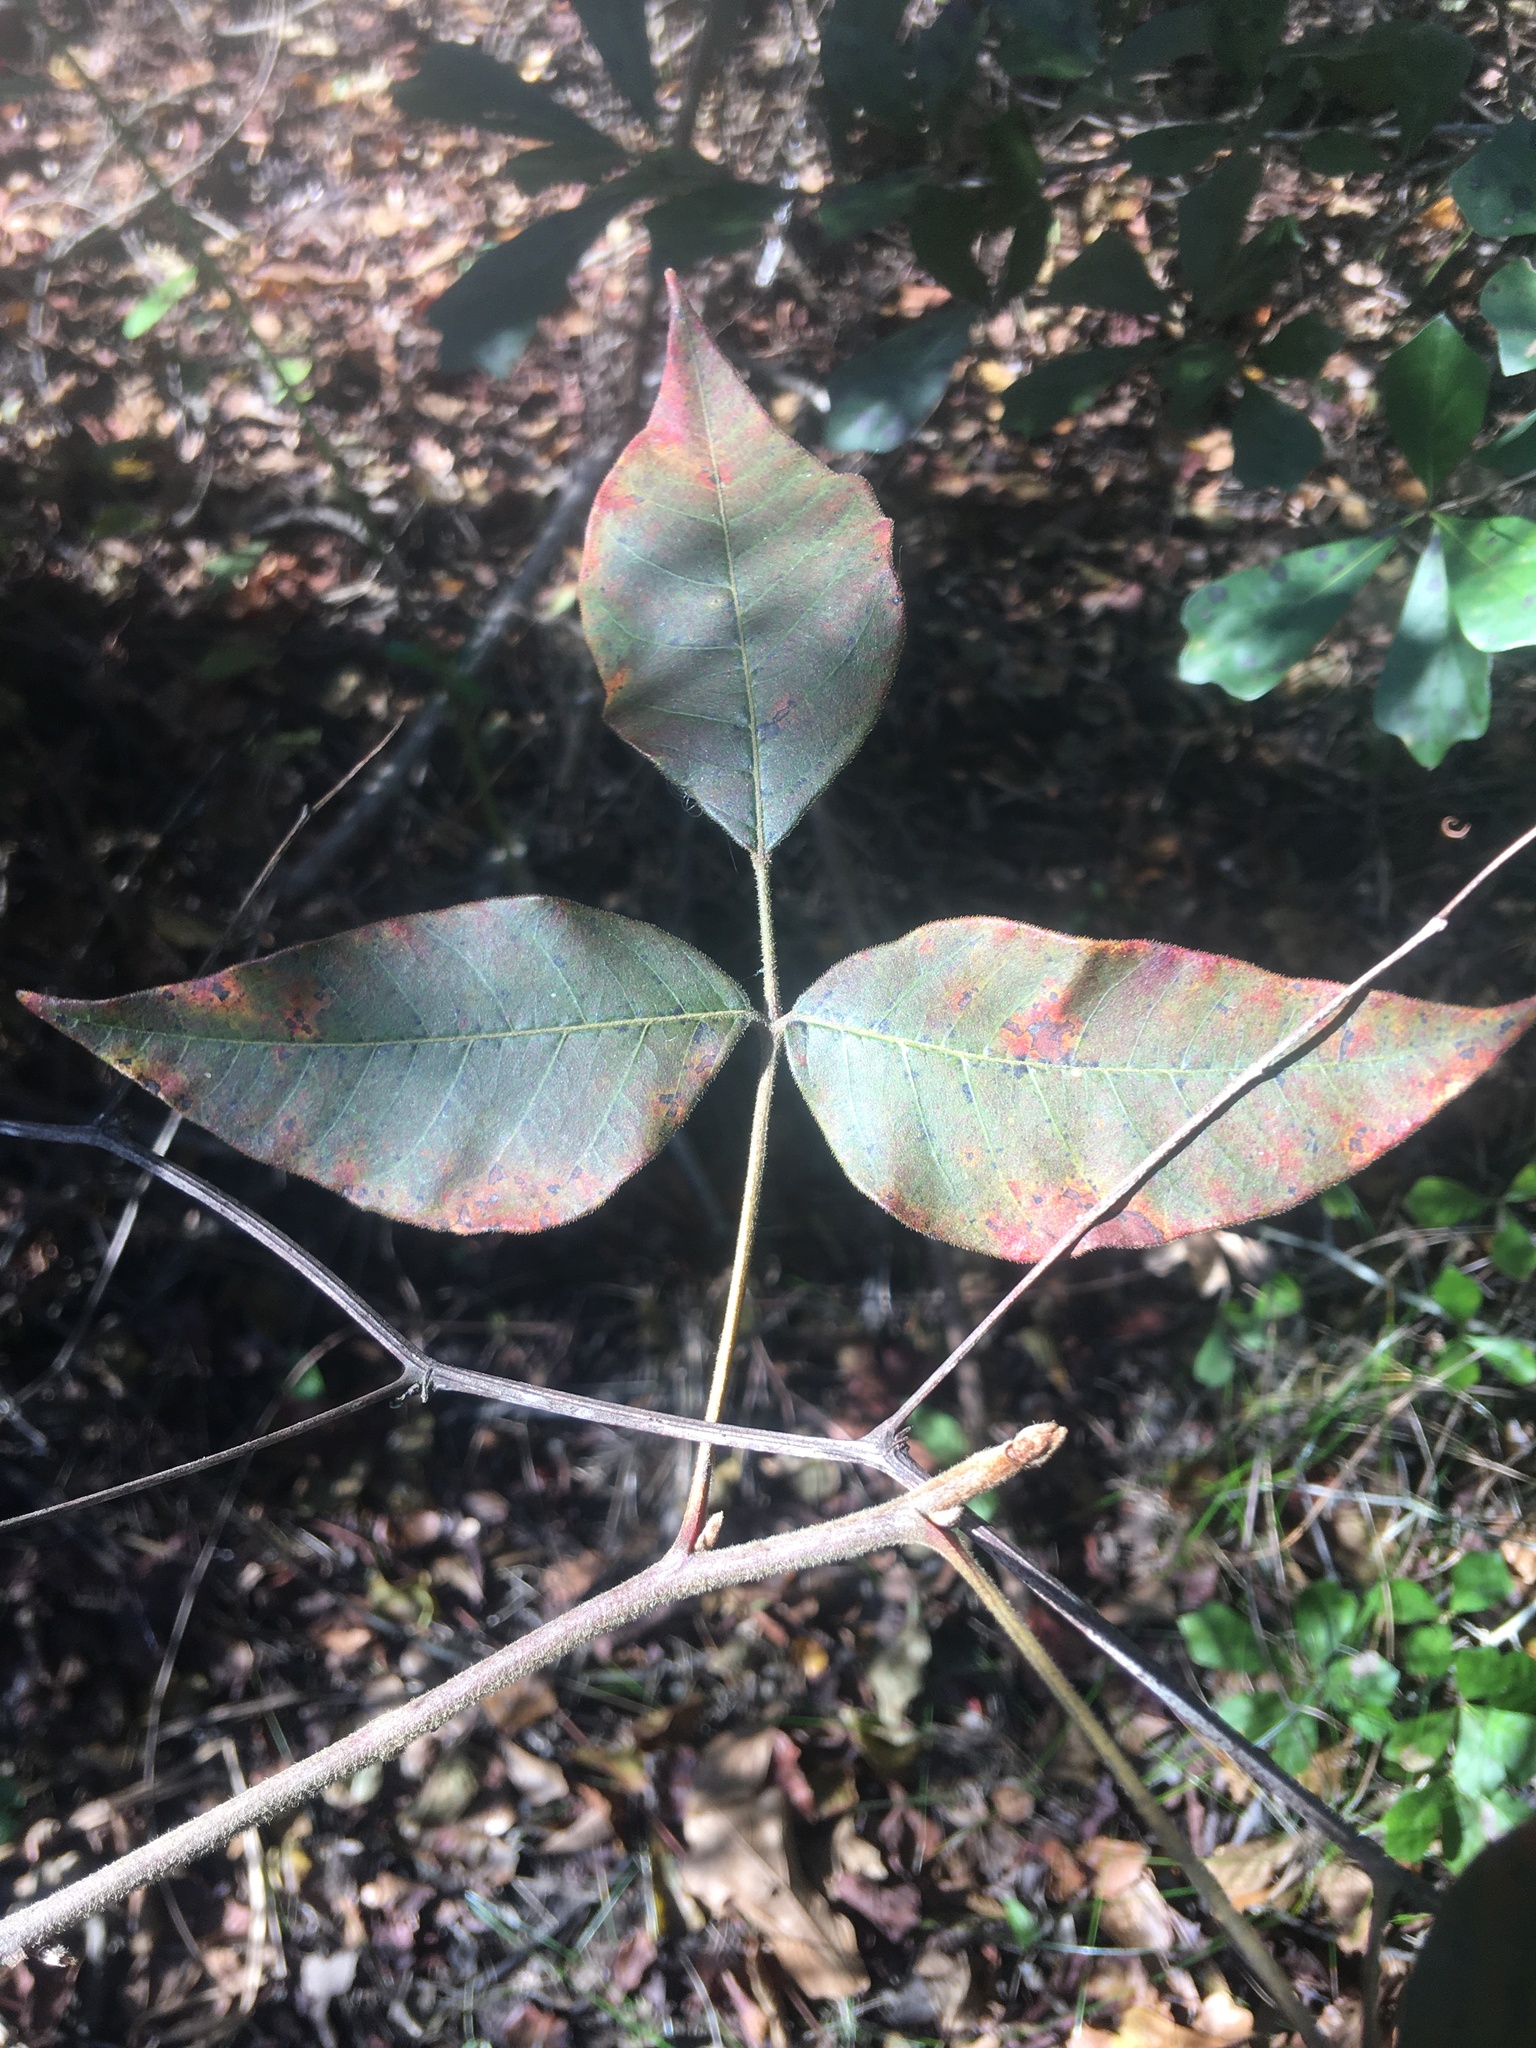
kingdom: Plantae
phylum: Tracheophyta
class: Magnoliopsida
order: Sapindales
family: Anacardiaceae
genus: Toxicodendron
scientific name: Toxicodendron radicans
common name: Poison ivy
